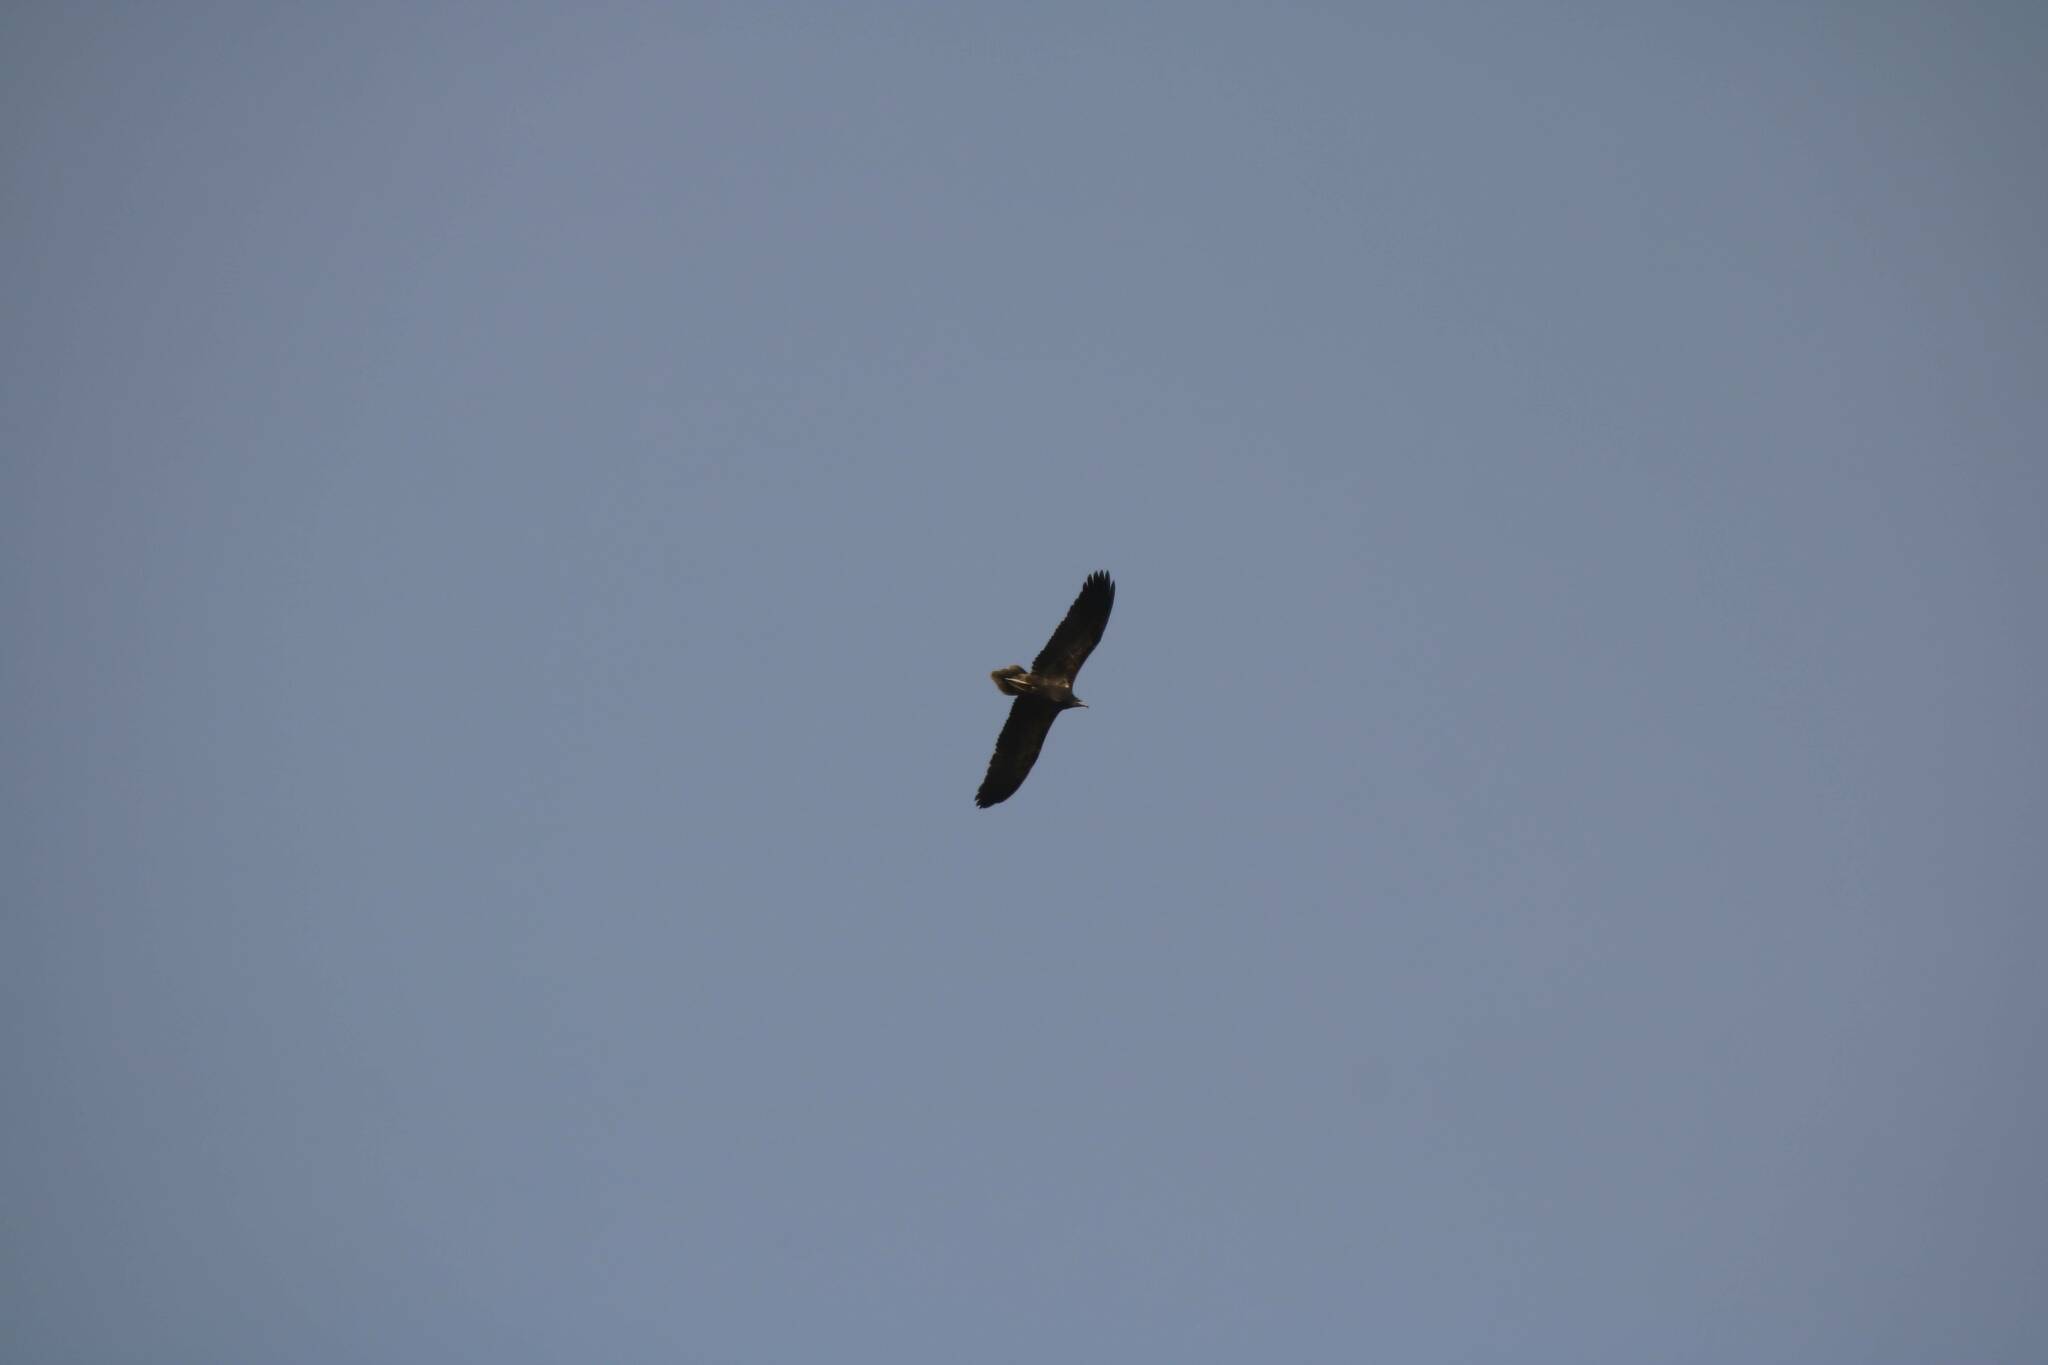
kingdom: Animalia
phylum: Chordata
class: Aves
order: Accipitriformes
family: Accipitridae
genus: Neophron
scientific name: Neophron percnopterus
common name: Egyptian vulture
